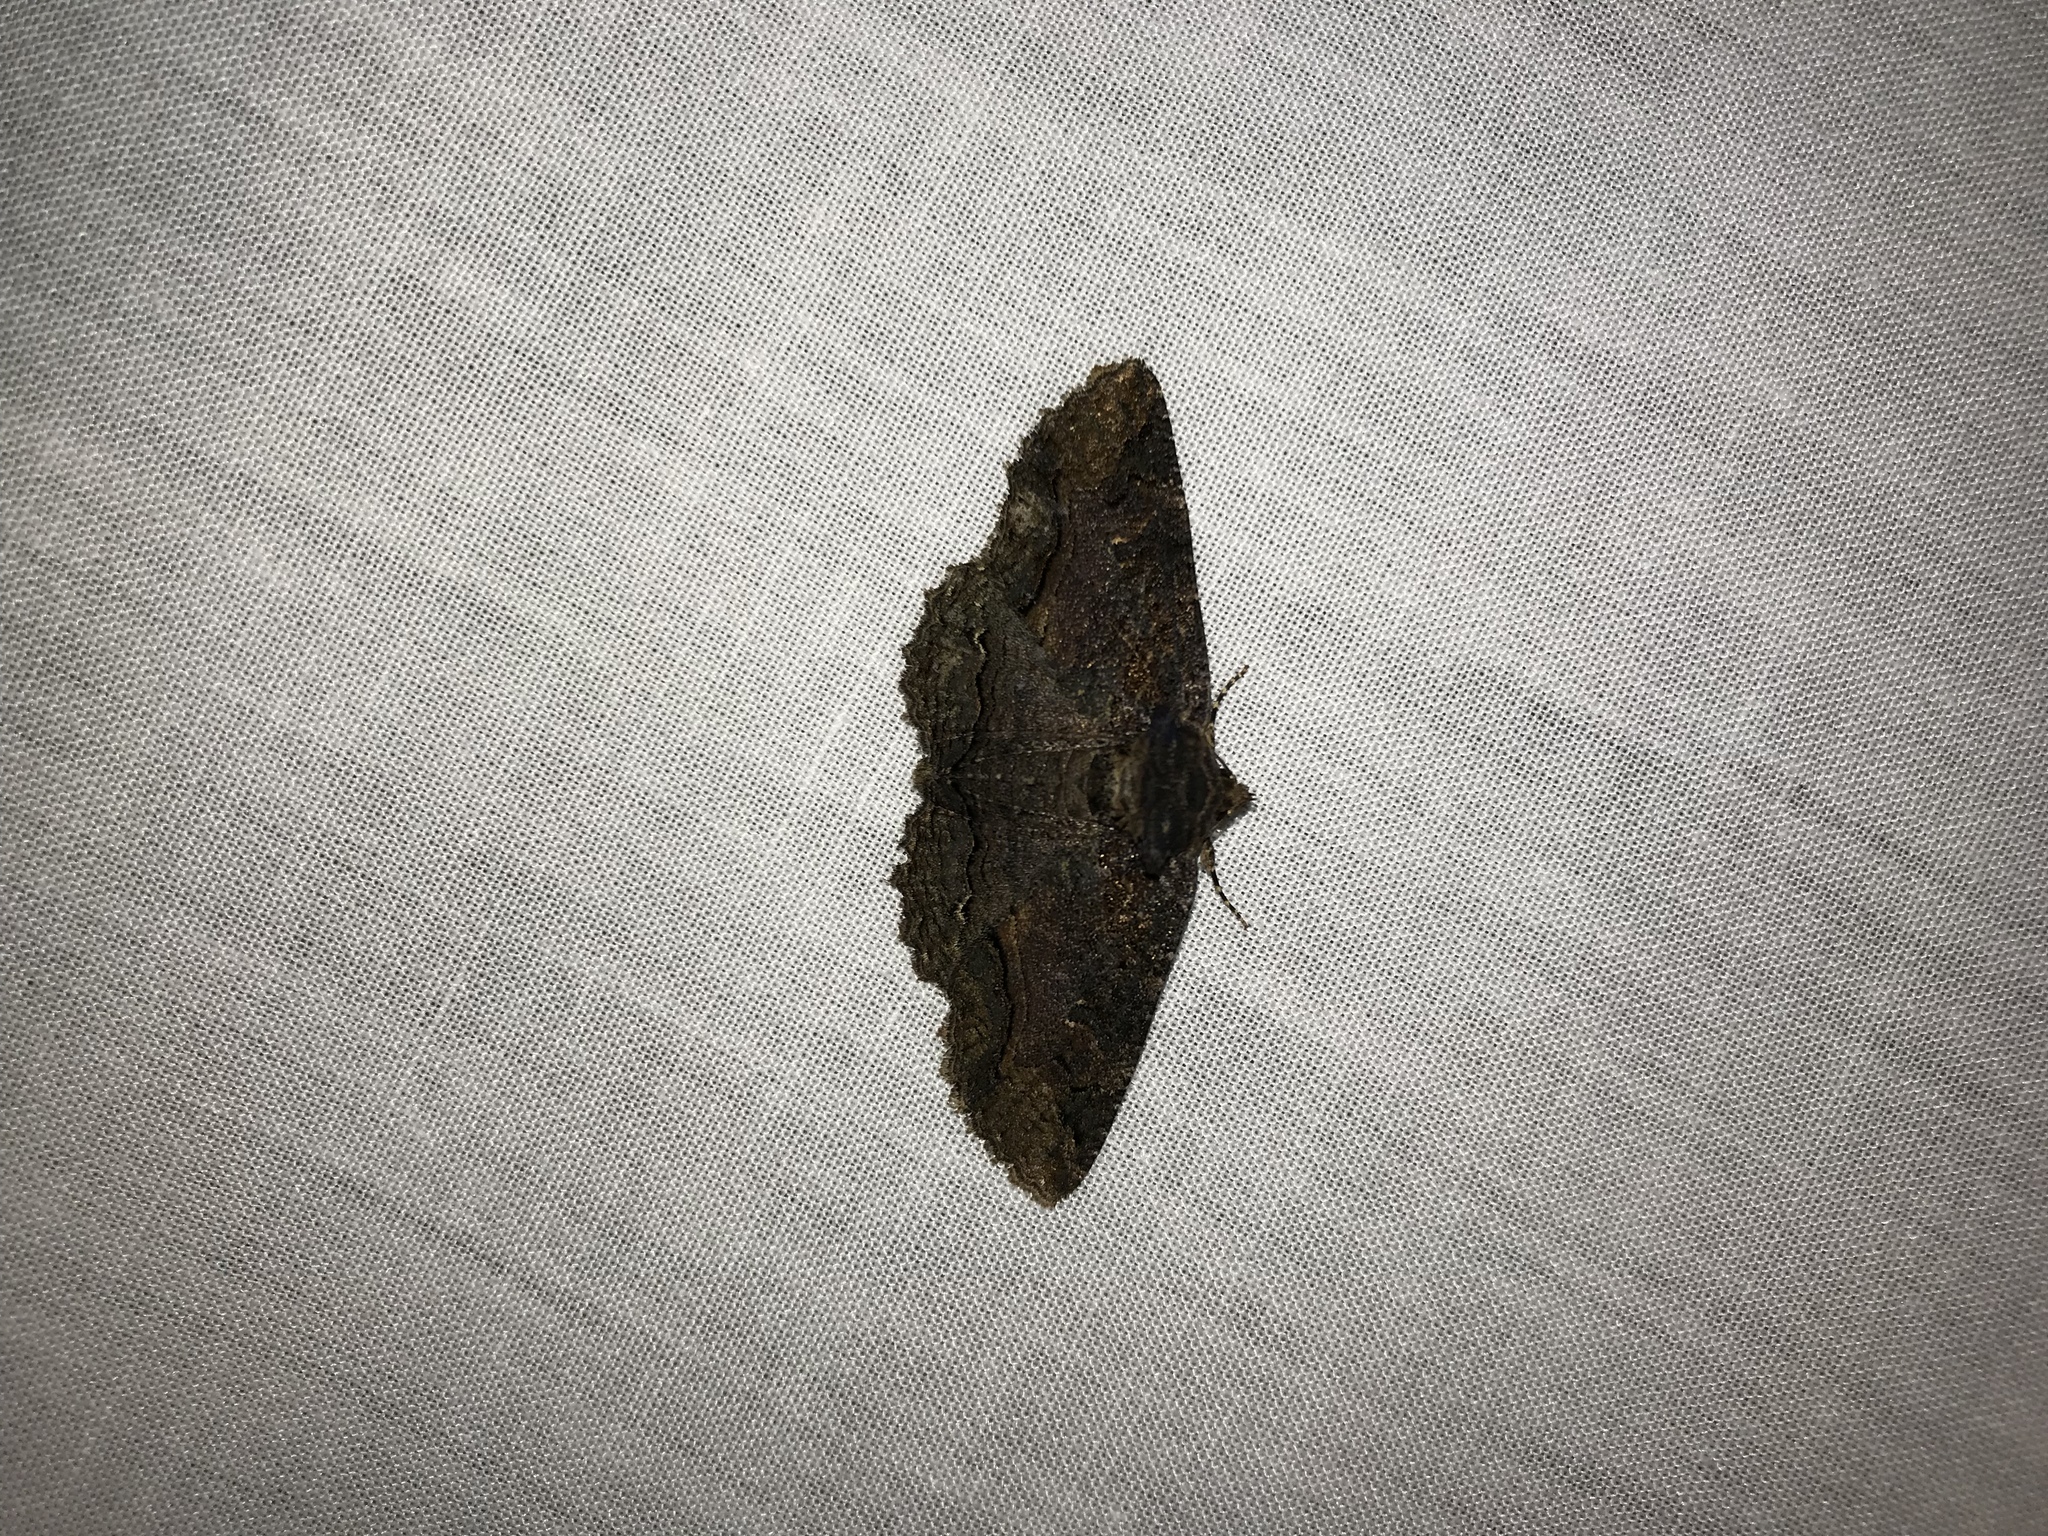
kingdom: Animalia
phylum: Arthropoda
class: Insecta
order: Lepidoptera
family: Erebidae
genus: Zale
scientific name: Zale lunata
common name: Lunate zale moth
